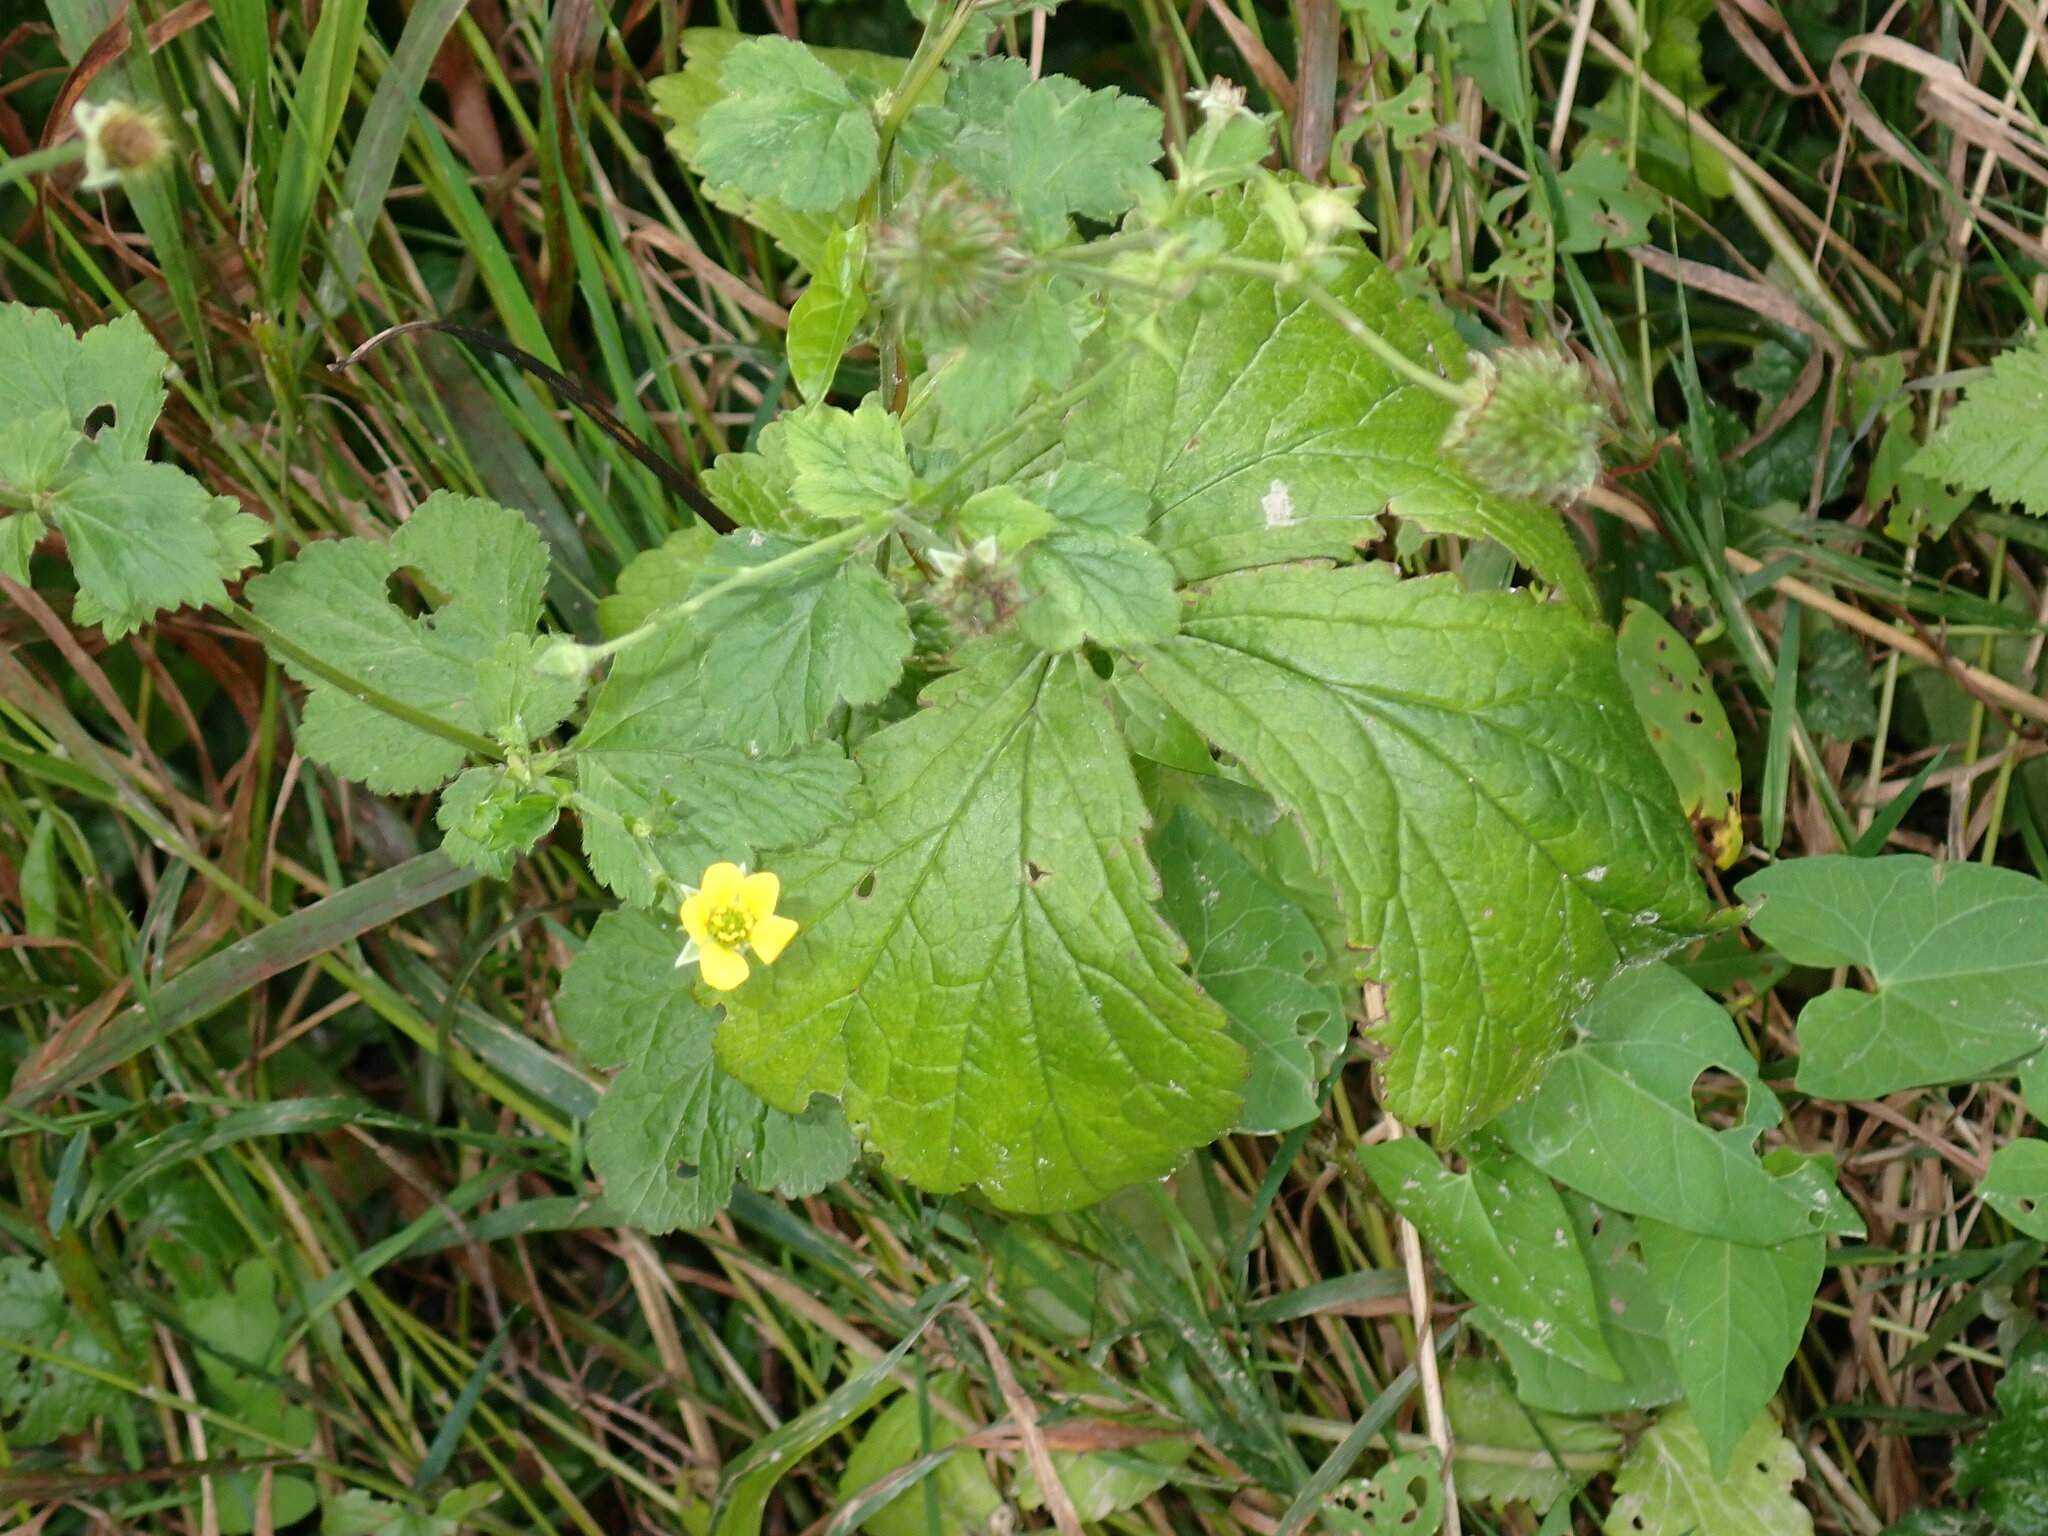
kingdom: Plantae
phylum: Tracheophyta
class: Magnoliopsida
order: Rosales
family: Rosaceae
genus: Geum
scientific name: Geum urbanum
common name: Wood avens
